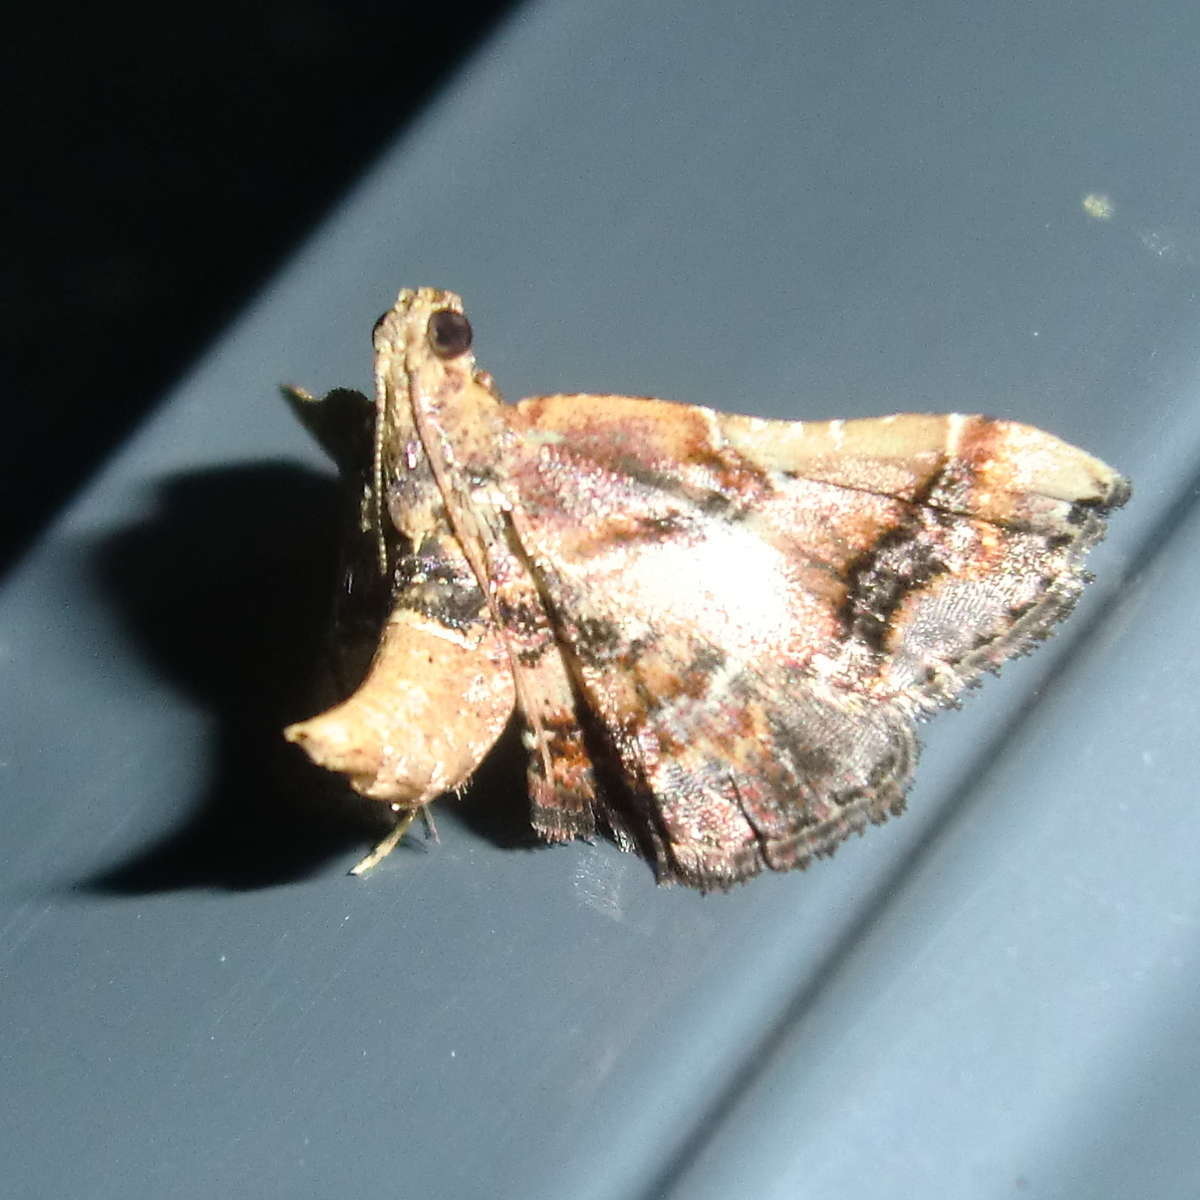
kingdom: Animalia
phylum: Arthropoda
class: Insecta
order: Lepidoptera
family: Pyralidae
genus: Scenedra
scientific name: Scenedra decoratalis
